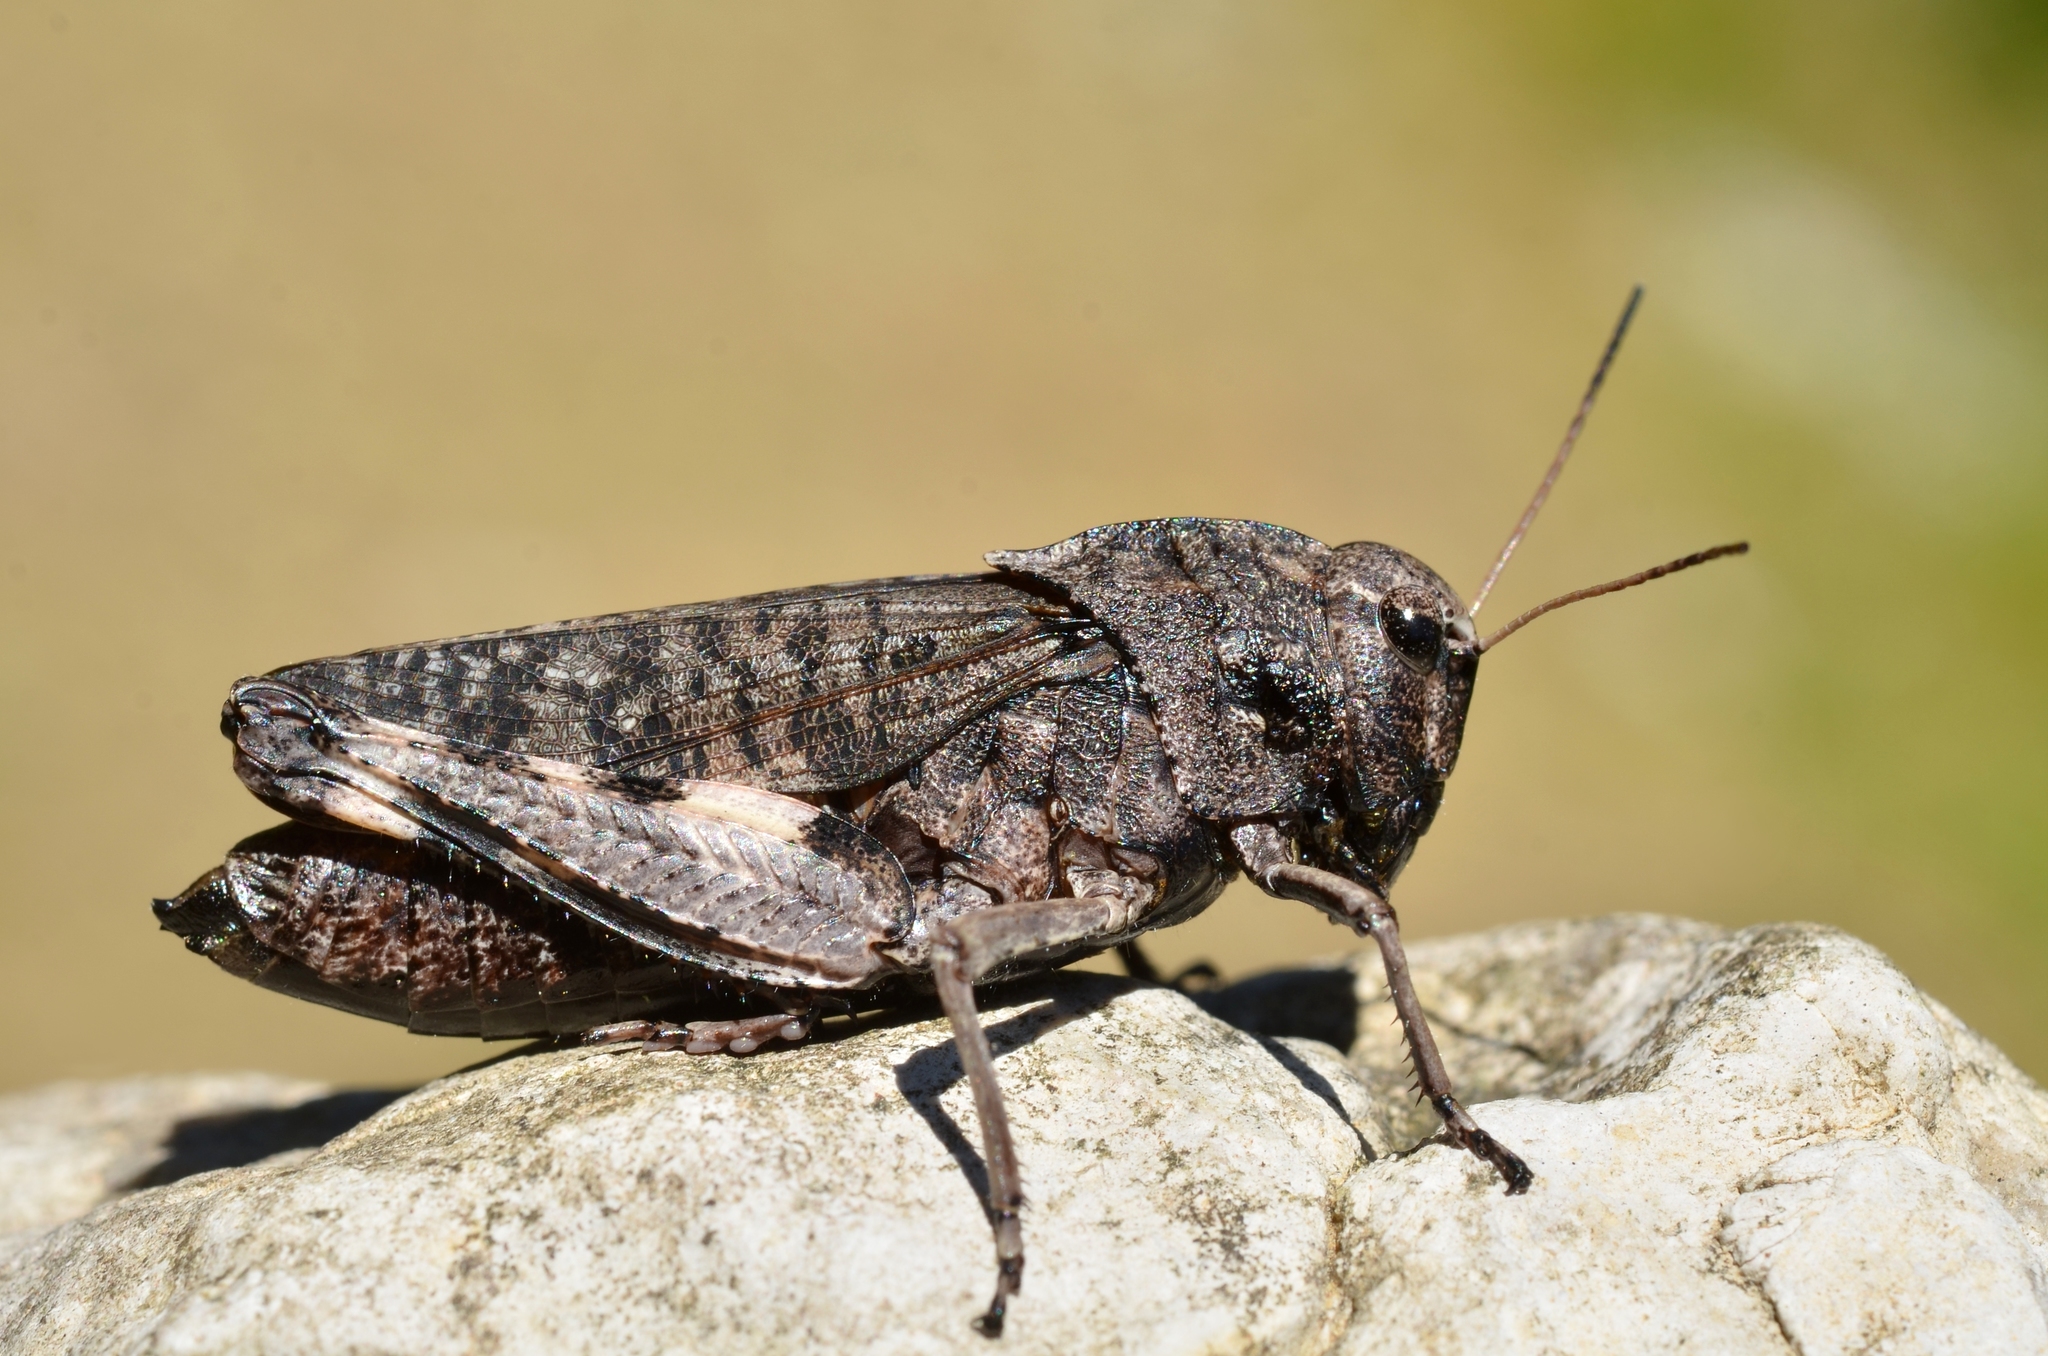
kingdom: Animalia
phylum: Arthropoda
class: Insecta
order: Orthoptera
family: Acrididae
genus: Psophus
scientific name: Psophus stridulus
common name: Rattle grasshopper
